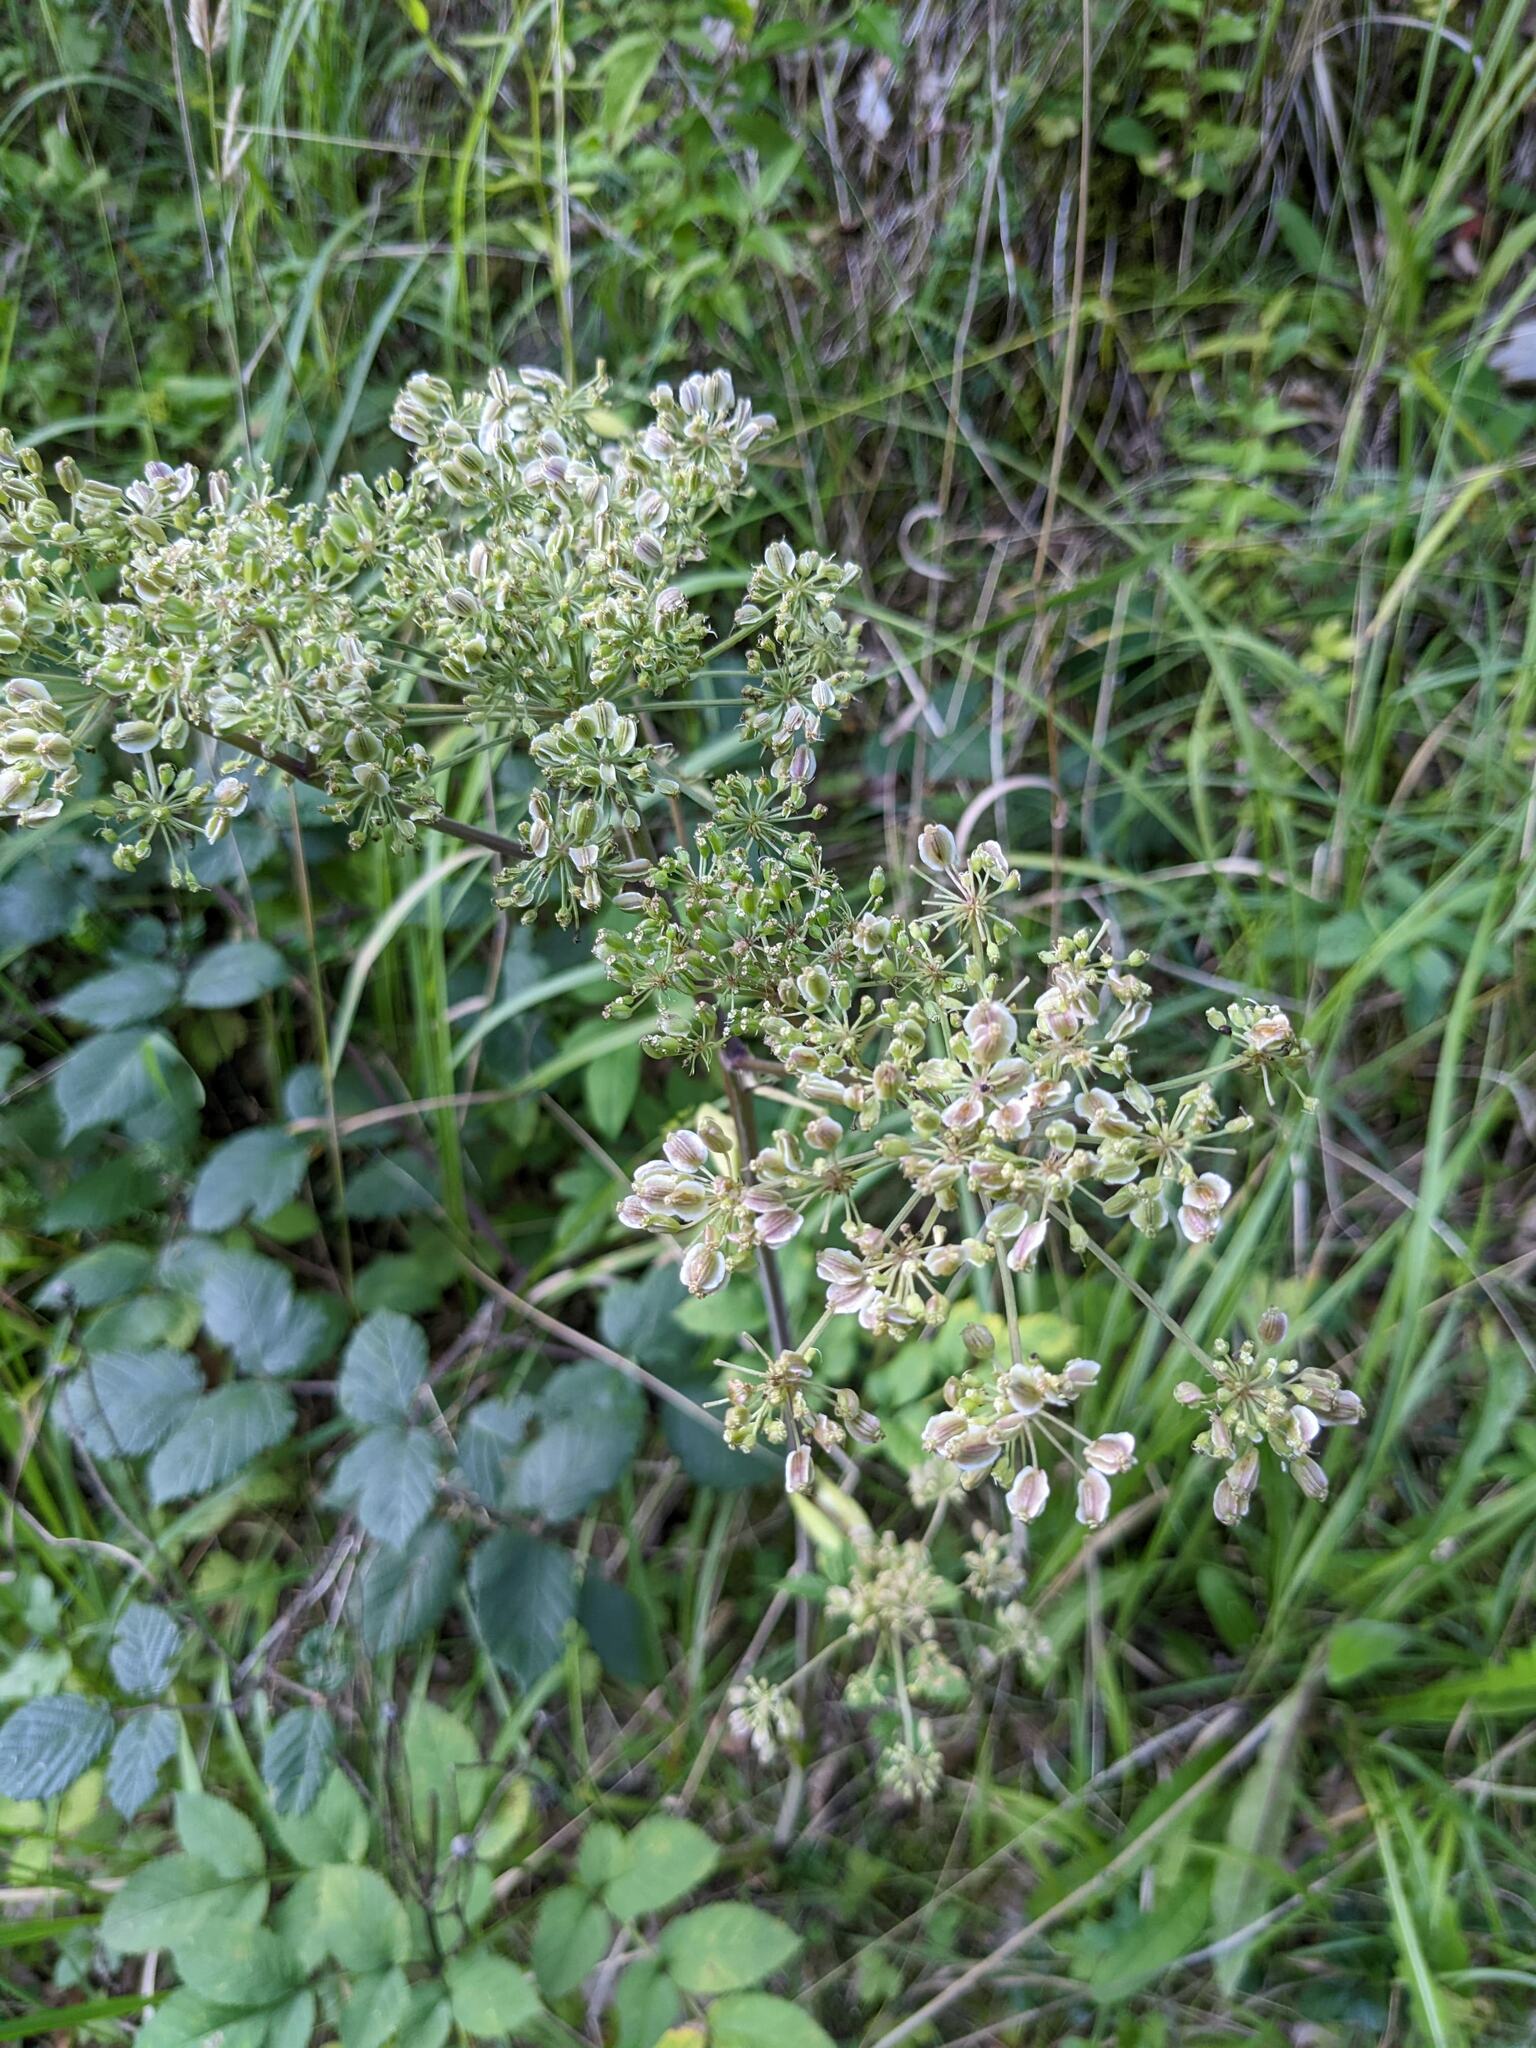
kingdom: Plantae
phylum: Tracheophyta
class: Magnoliopsida
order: Apiales
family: Apiaceae
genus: Angelica
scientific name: Angelica sylvestris
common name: Wild angelica
